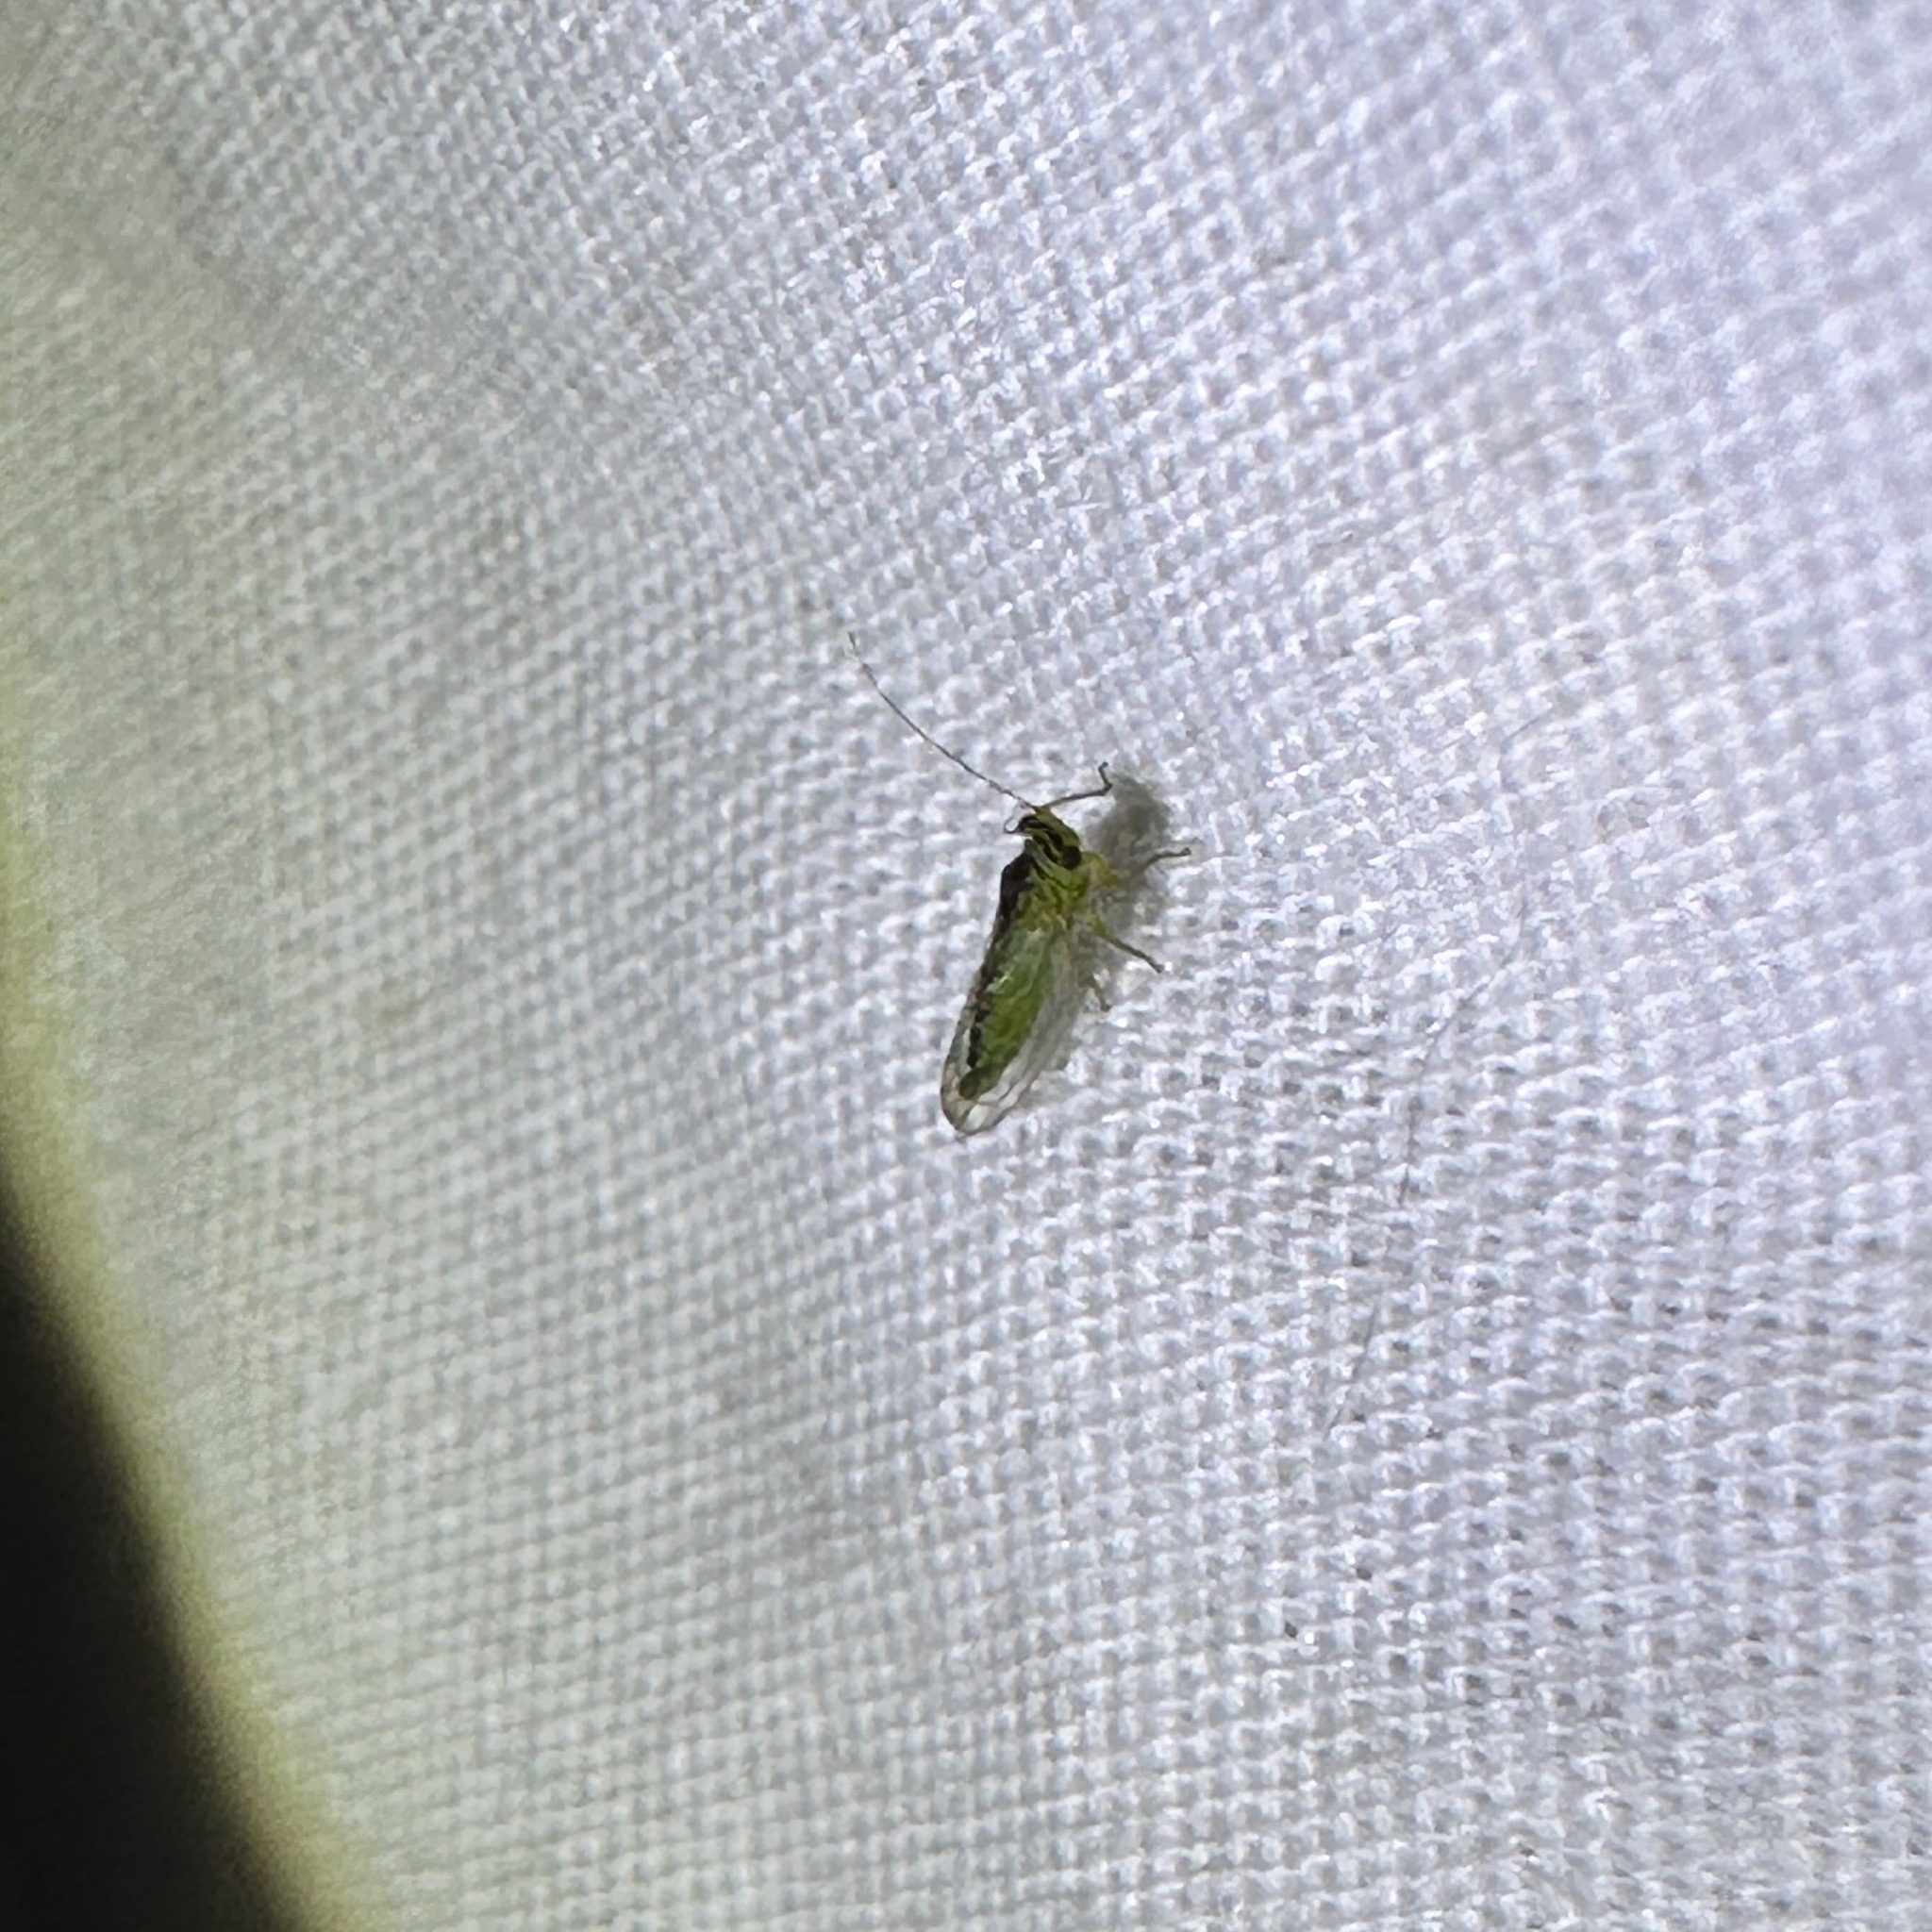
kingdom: Animalia
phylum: Arthropoda
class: Insecta
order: Hemiptera
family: Psyllidae
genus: Platycorypha
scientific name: Platycorypha nigrivirga
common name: Tipu psyllid
